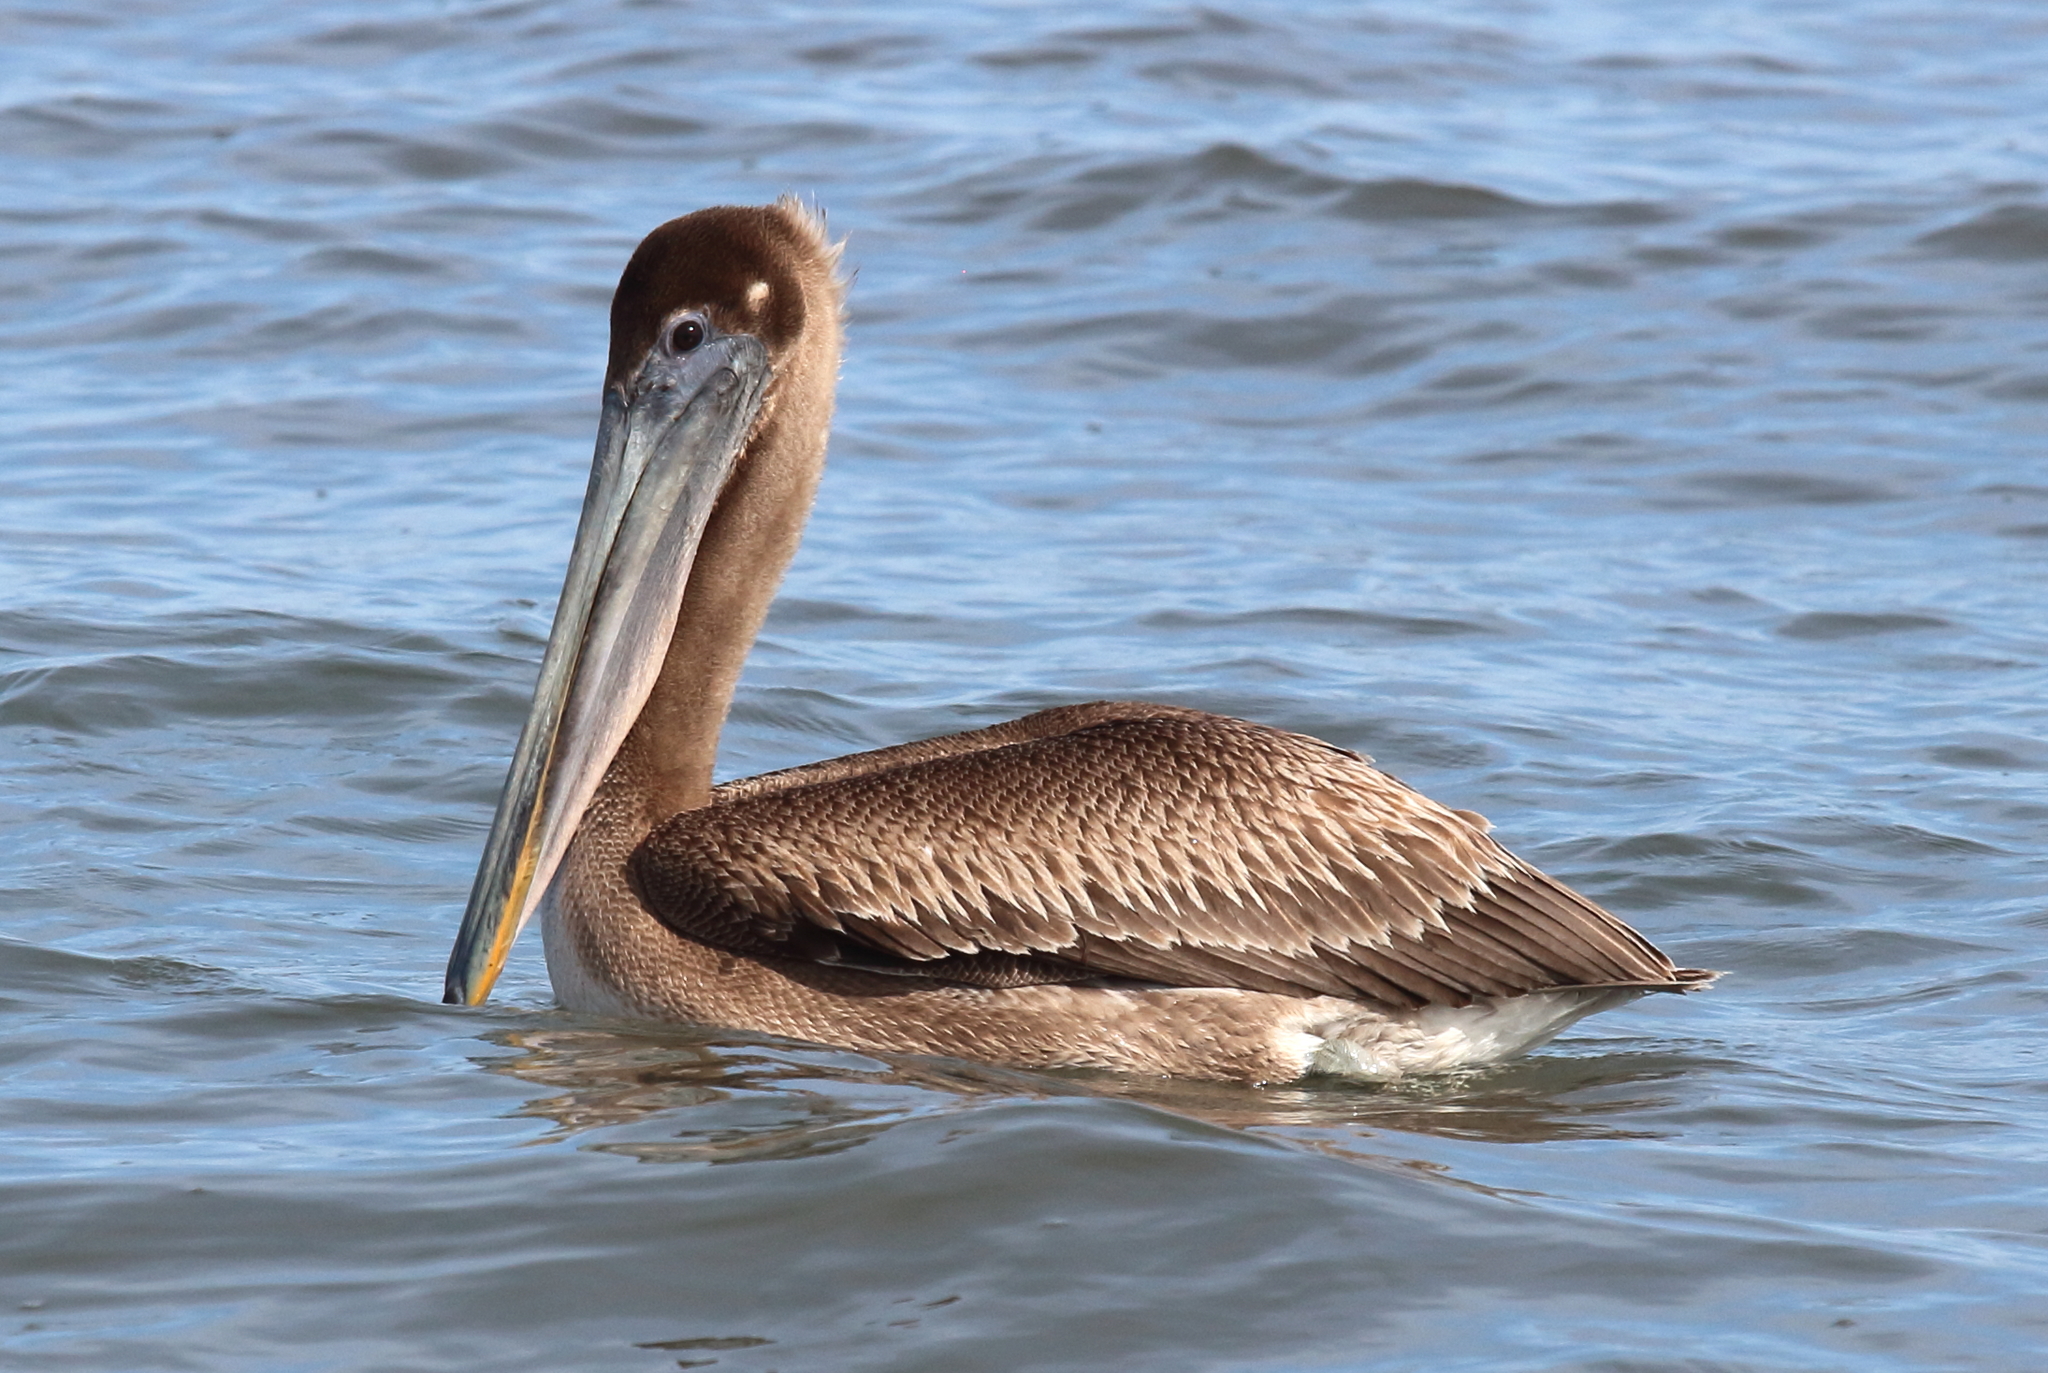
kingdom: Animalia
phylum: Chordata
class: Aves
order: Pelecaniformes
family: Pelecanidae
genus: Pelecanus
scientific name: Pelecanus occidentalis
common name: Brown pelican
